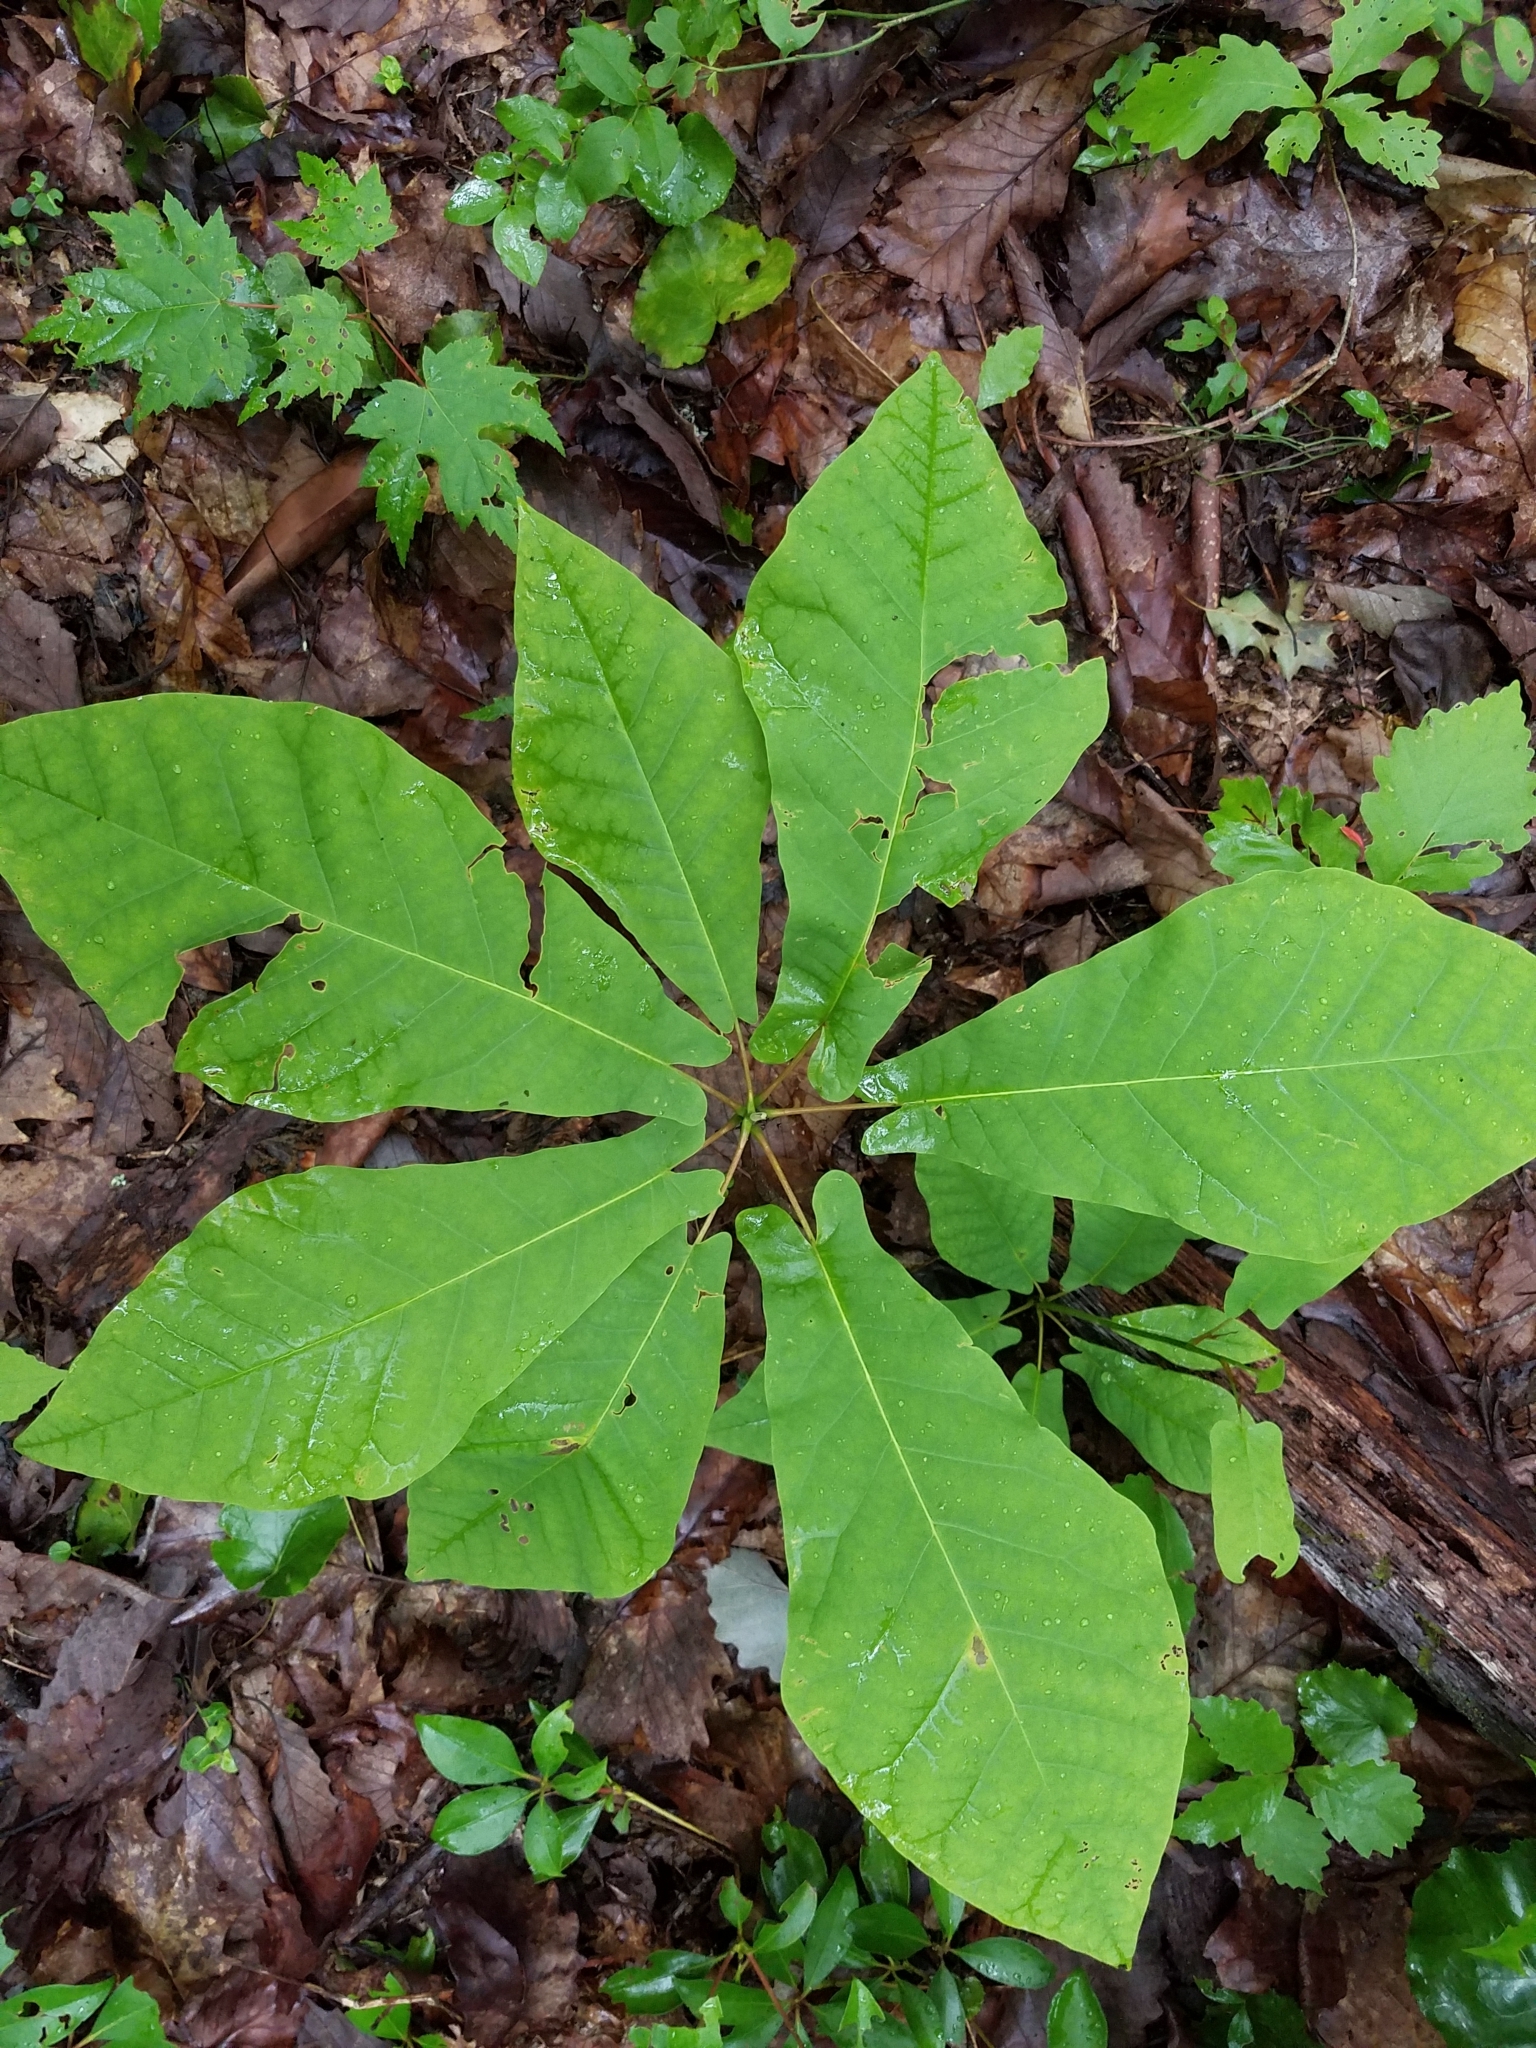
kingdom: Plantae
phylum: Tracheophyta
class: Magnoliopsida
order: Magnoliales
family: Magnoliaceae
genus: Magnolia
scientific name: Magnolia fraseri
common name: Fraser's magnolia
